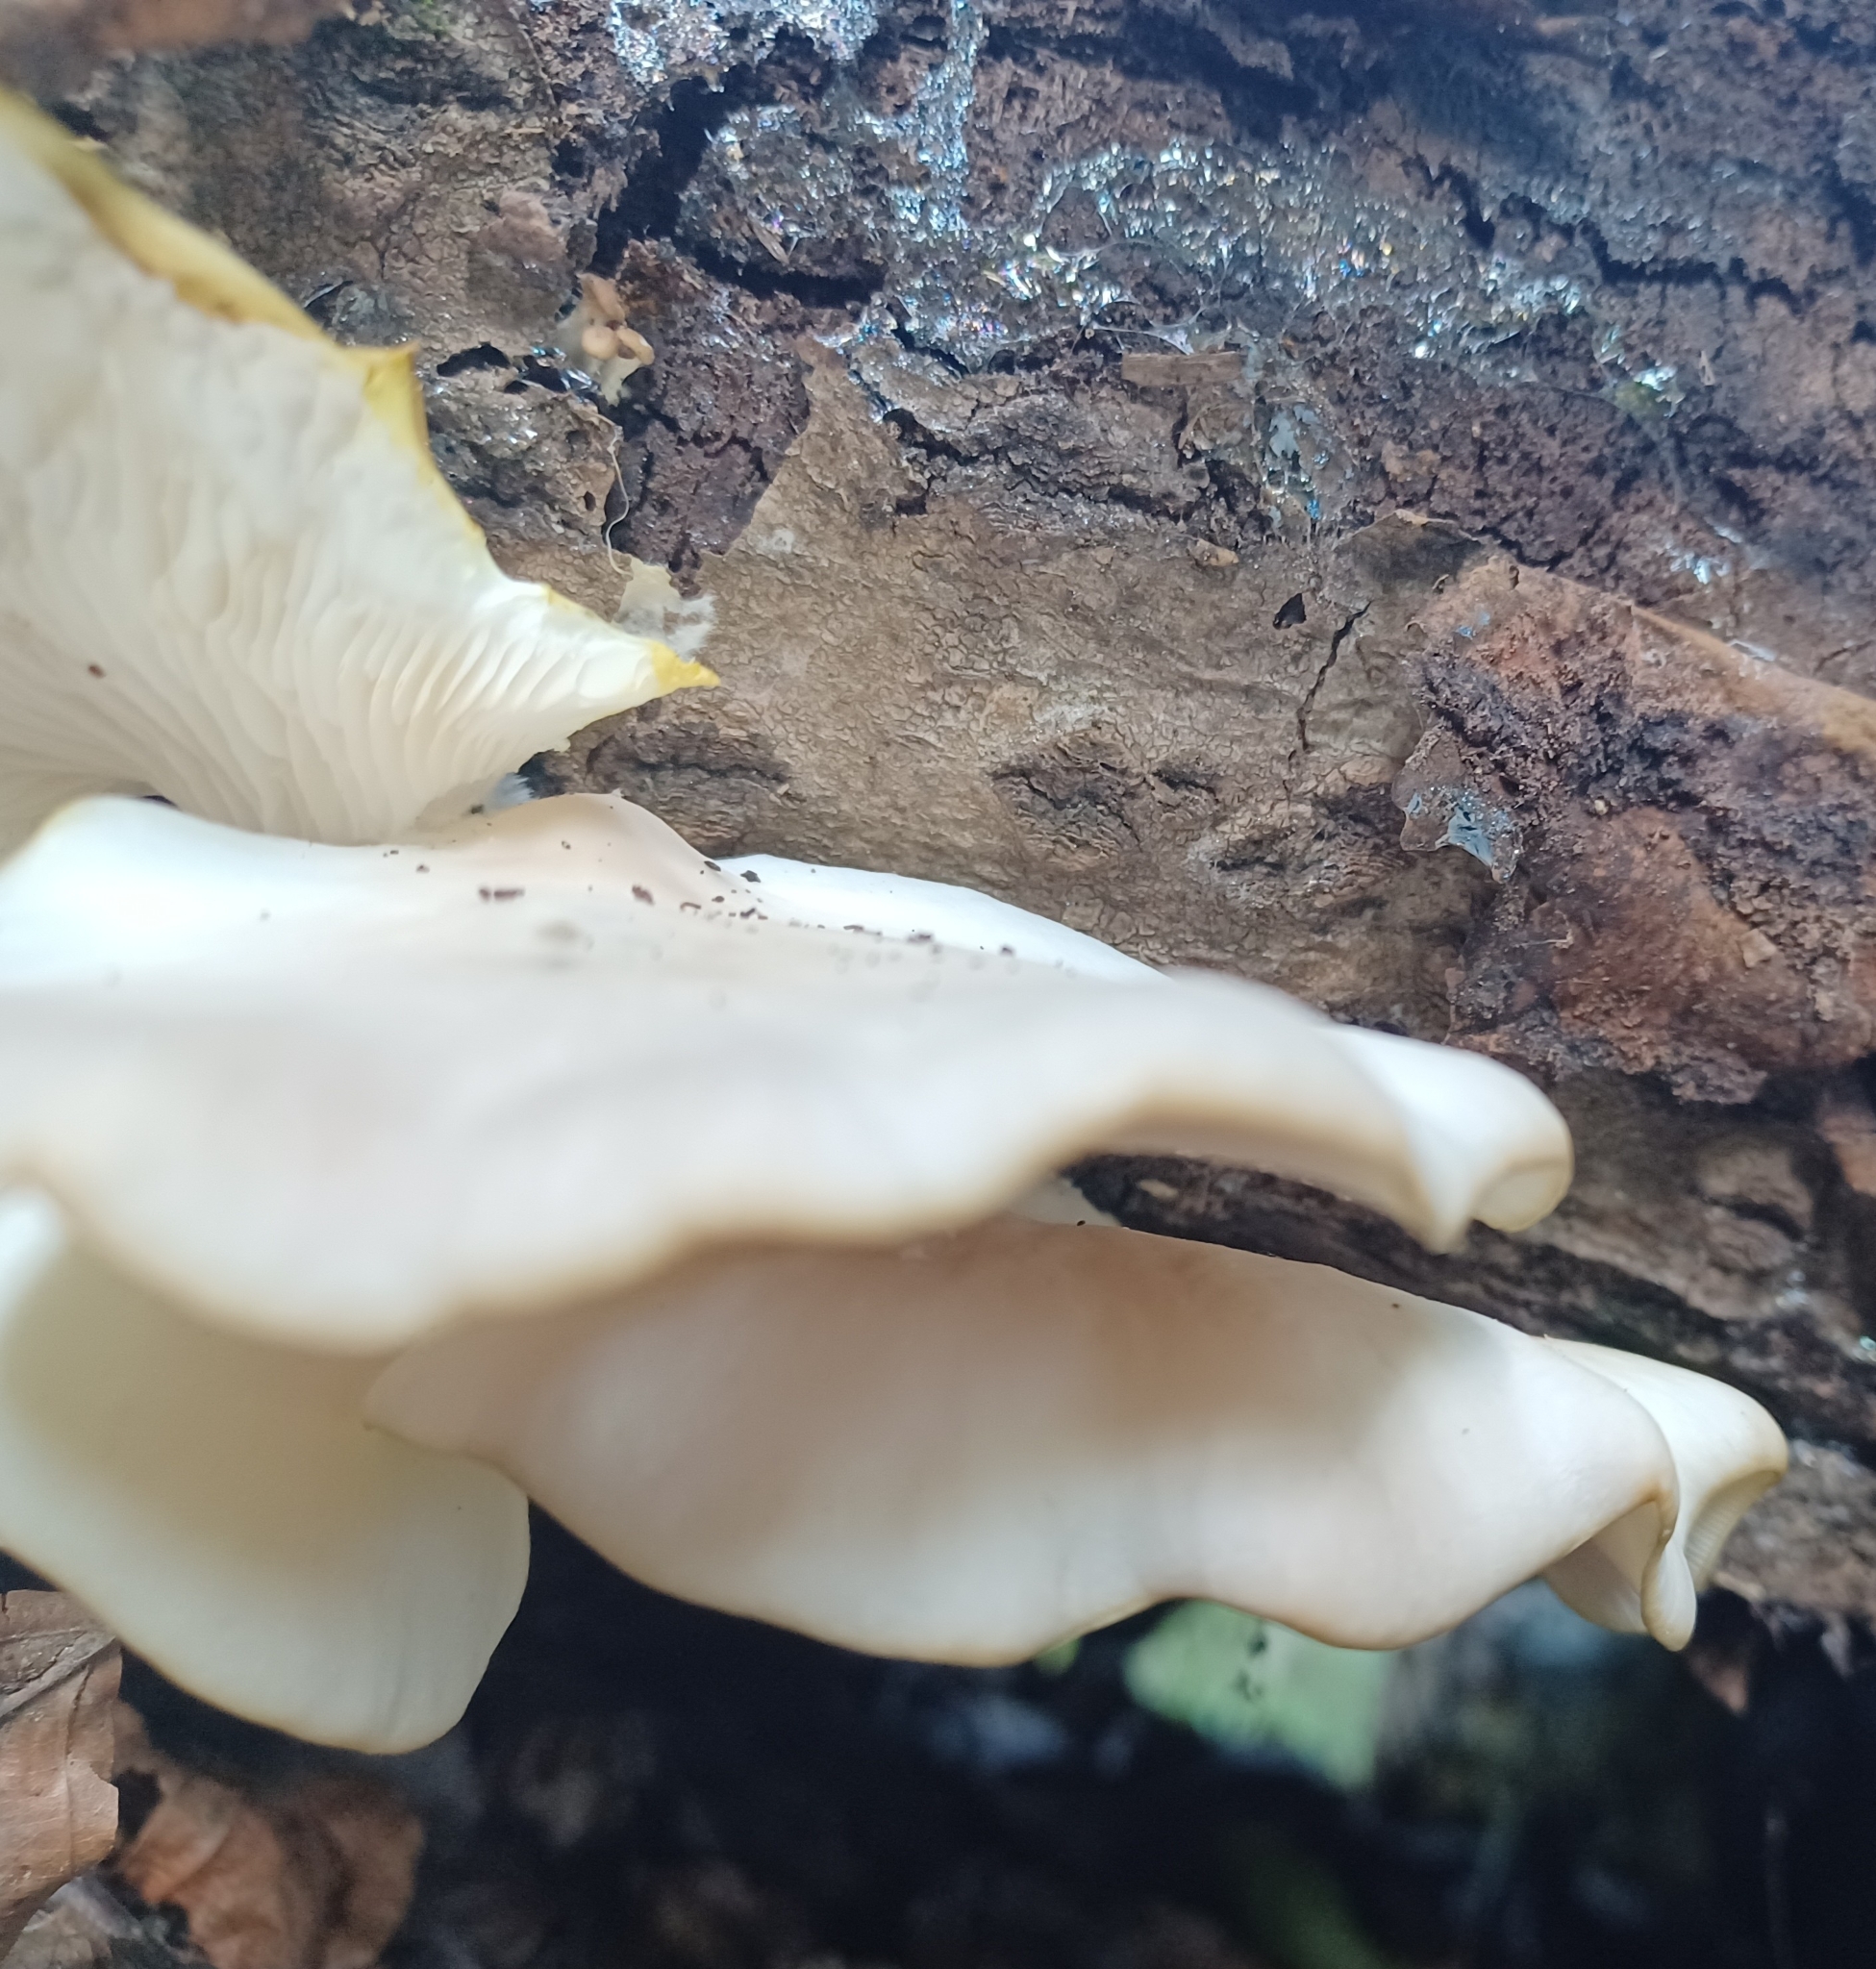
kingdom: Fungi
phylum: Basidiomycota
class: Agaricomycetes
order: Agaricales
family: Pleurotaceae
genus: Pleurotus
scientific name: Pleurotus pulmonarius
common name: Pale oyster
